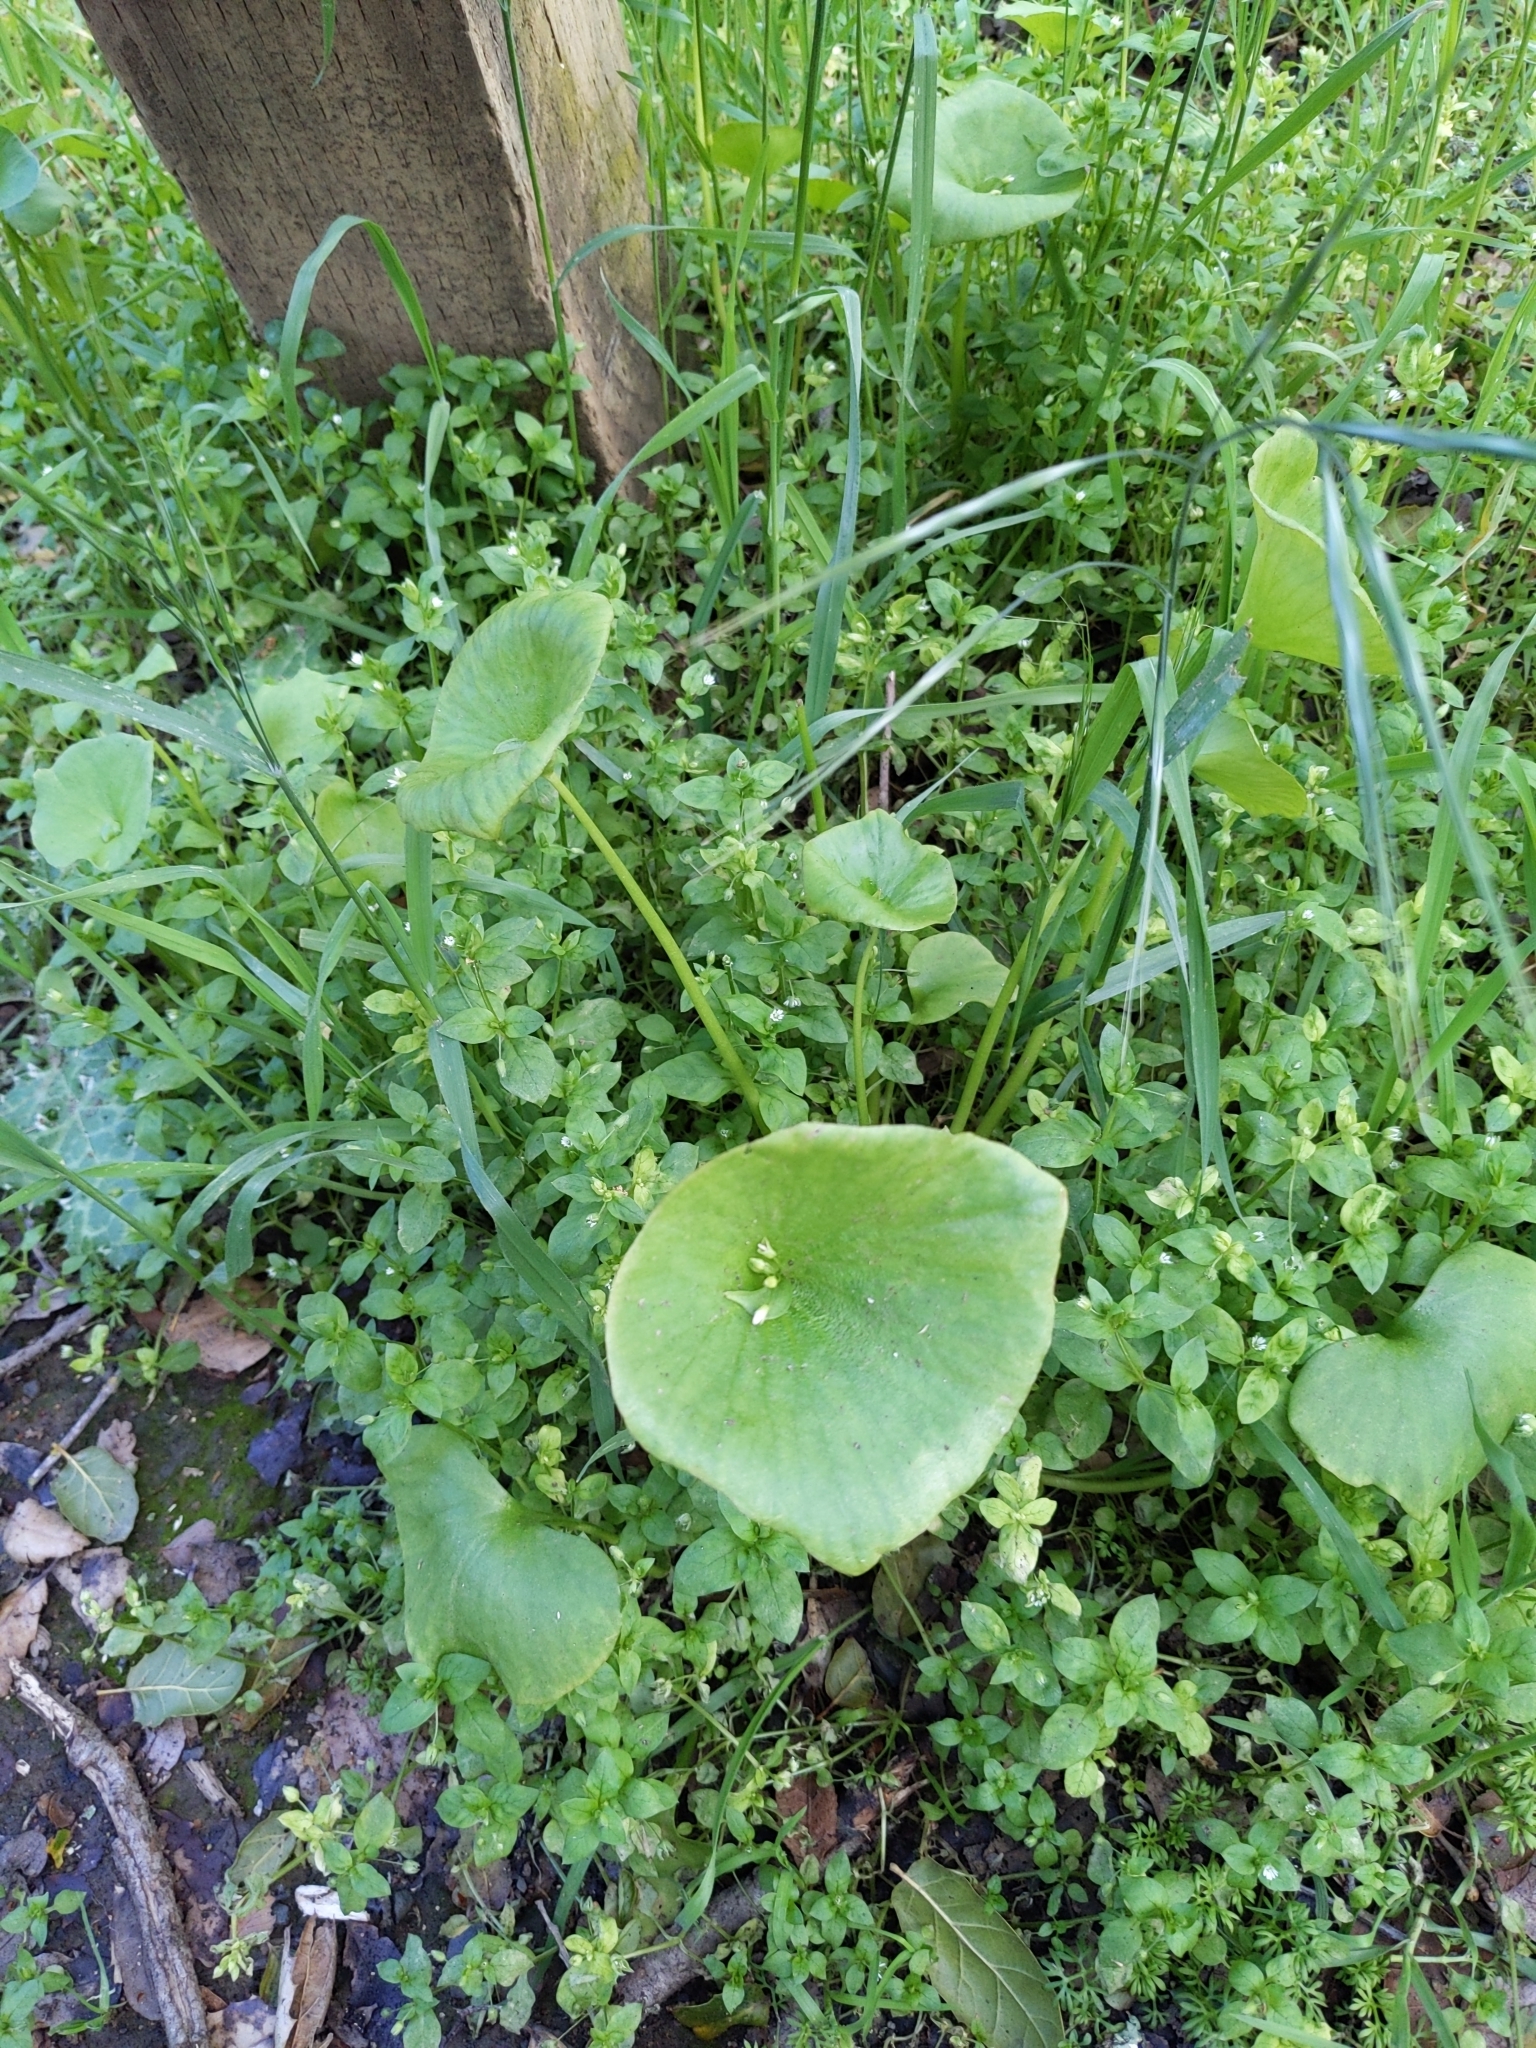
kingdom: Plantae
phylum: Tracheophyta
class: Magnoliopsida
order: Caryophyllales
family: Montiaceae
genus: Claytonia
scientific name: Claytonia perfoliata
